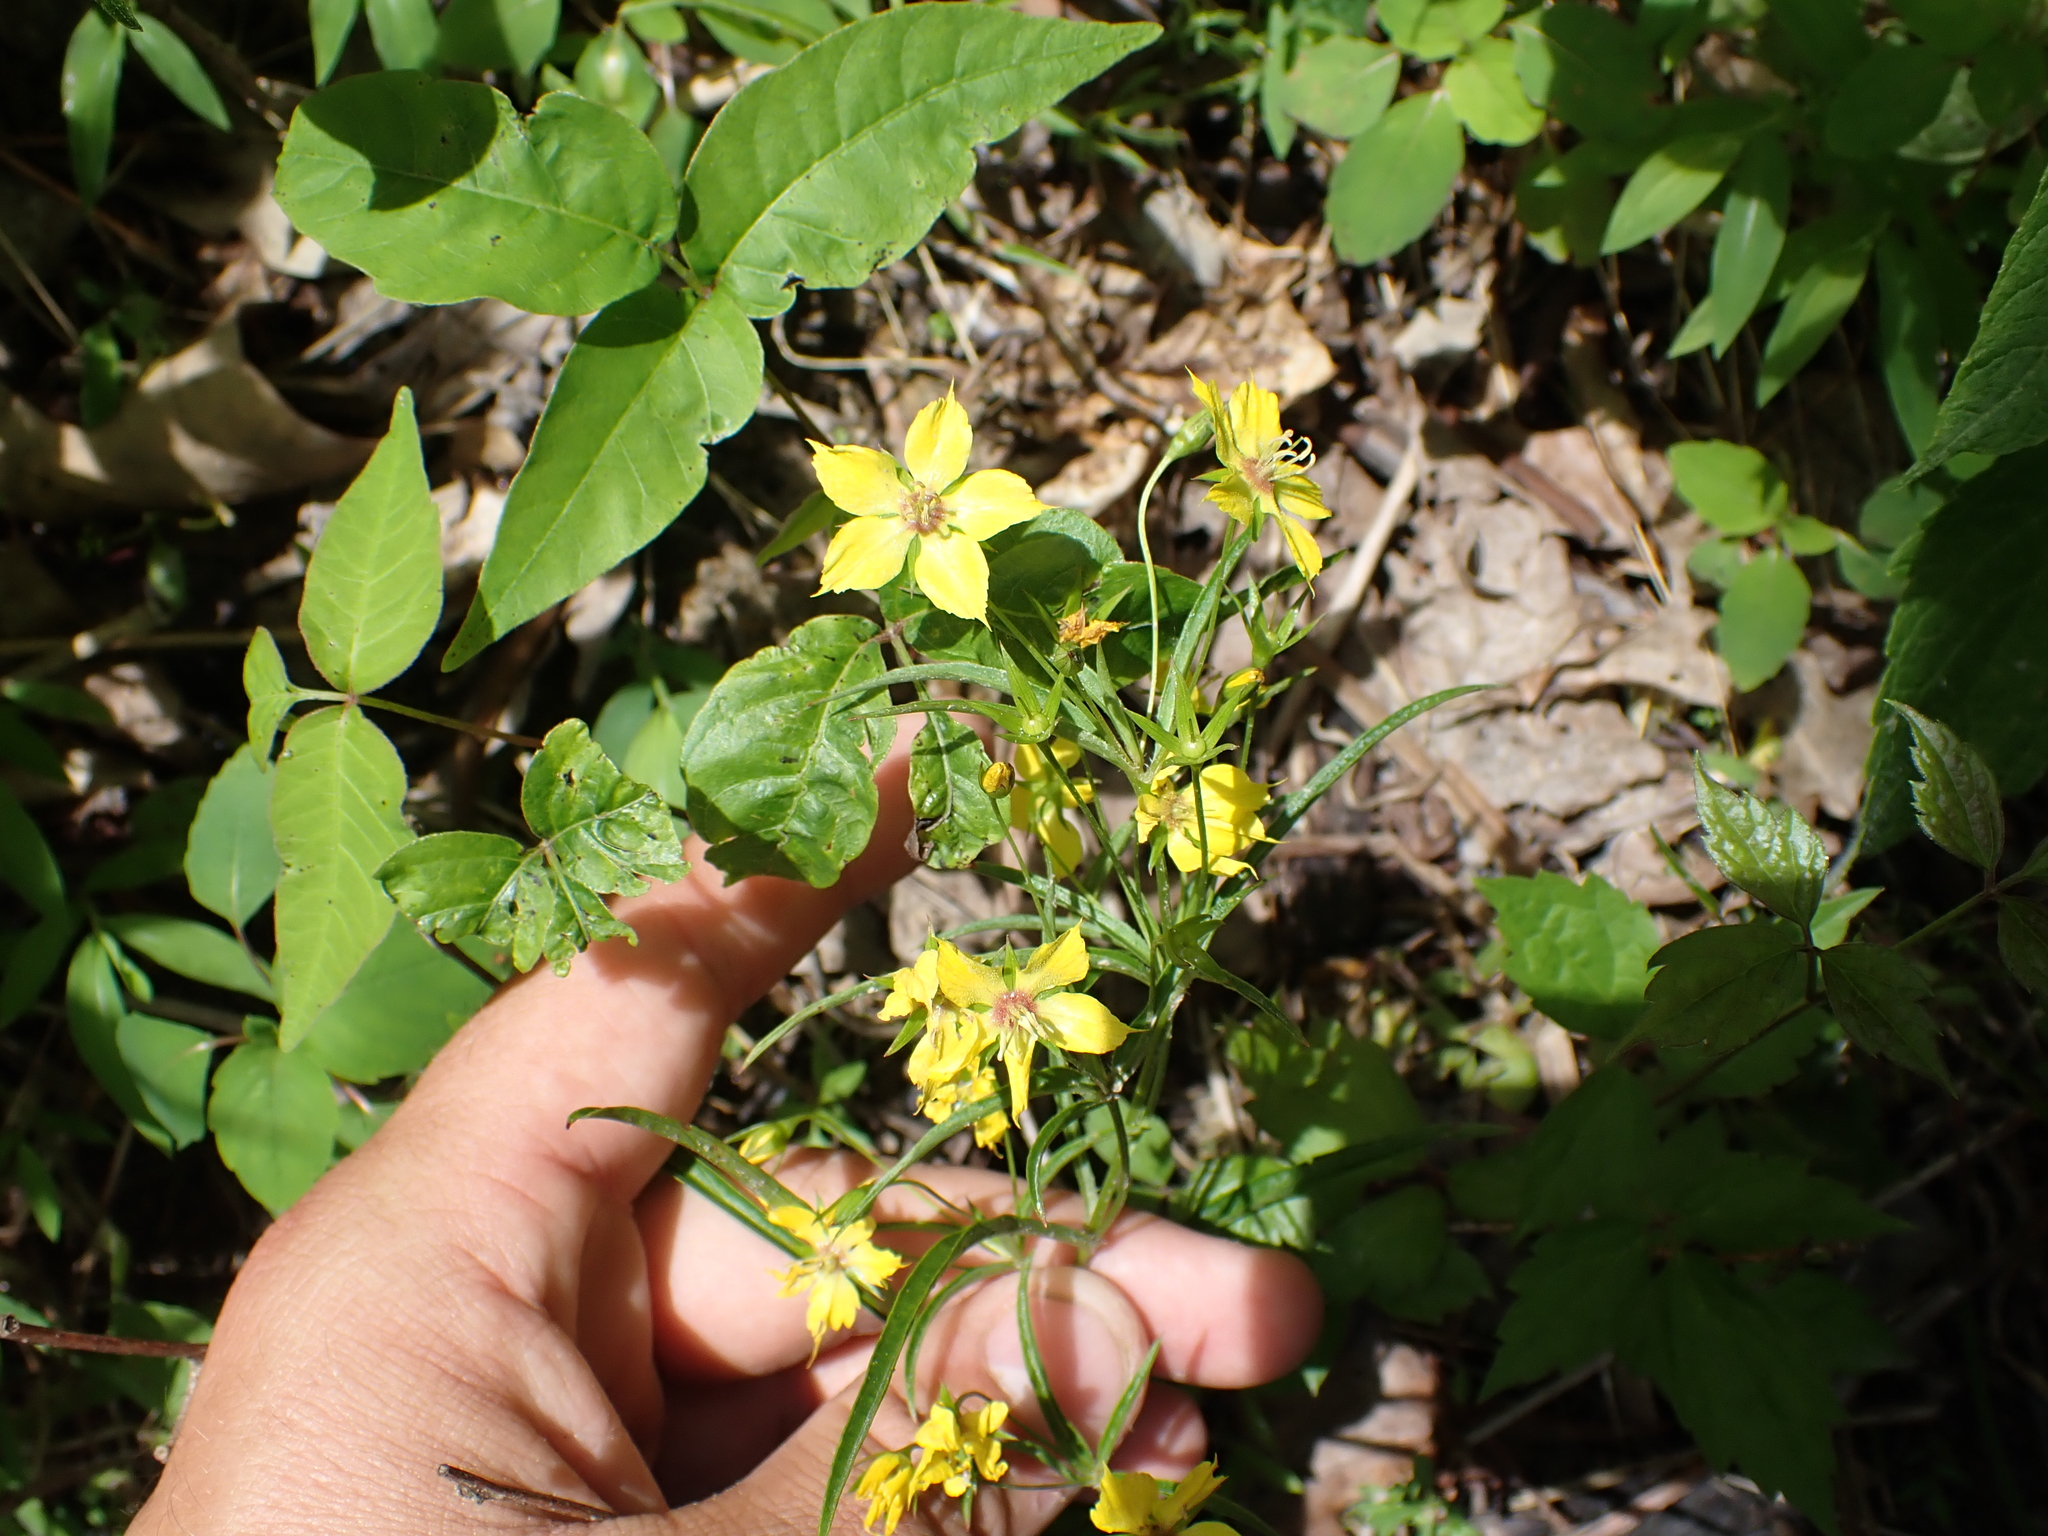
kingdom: Plantae
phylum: Tracheophyta
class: Magnoliopsida
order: Ericales
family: Primulaceae
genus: Lysimachia
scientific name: Lysimachia lanceolata
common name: Lance-leaved loosestrife
